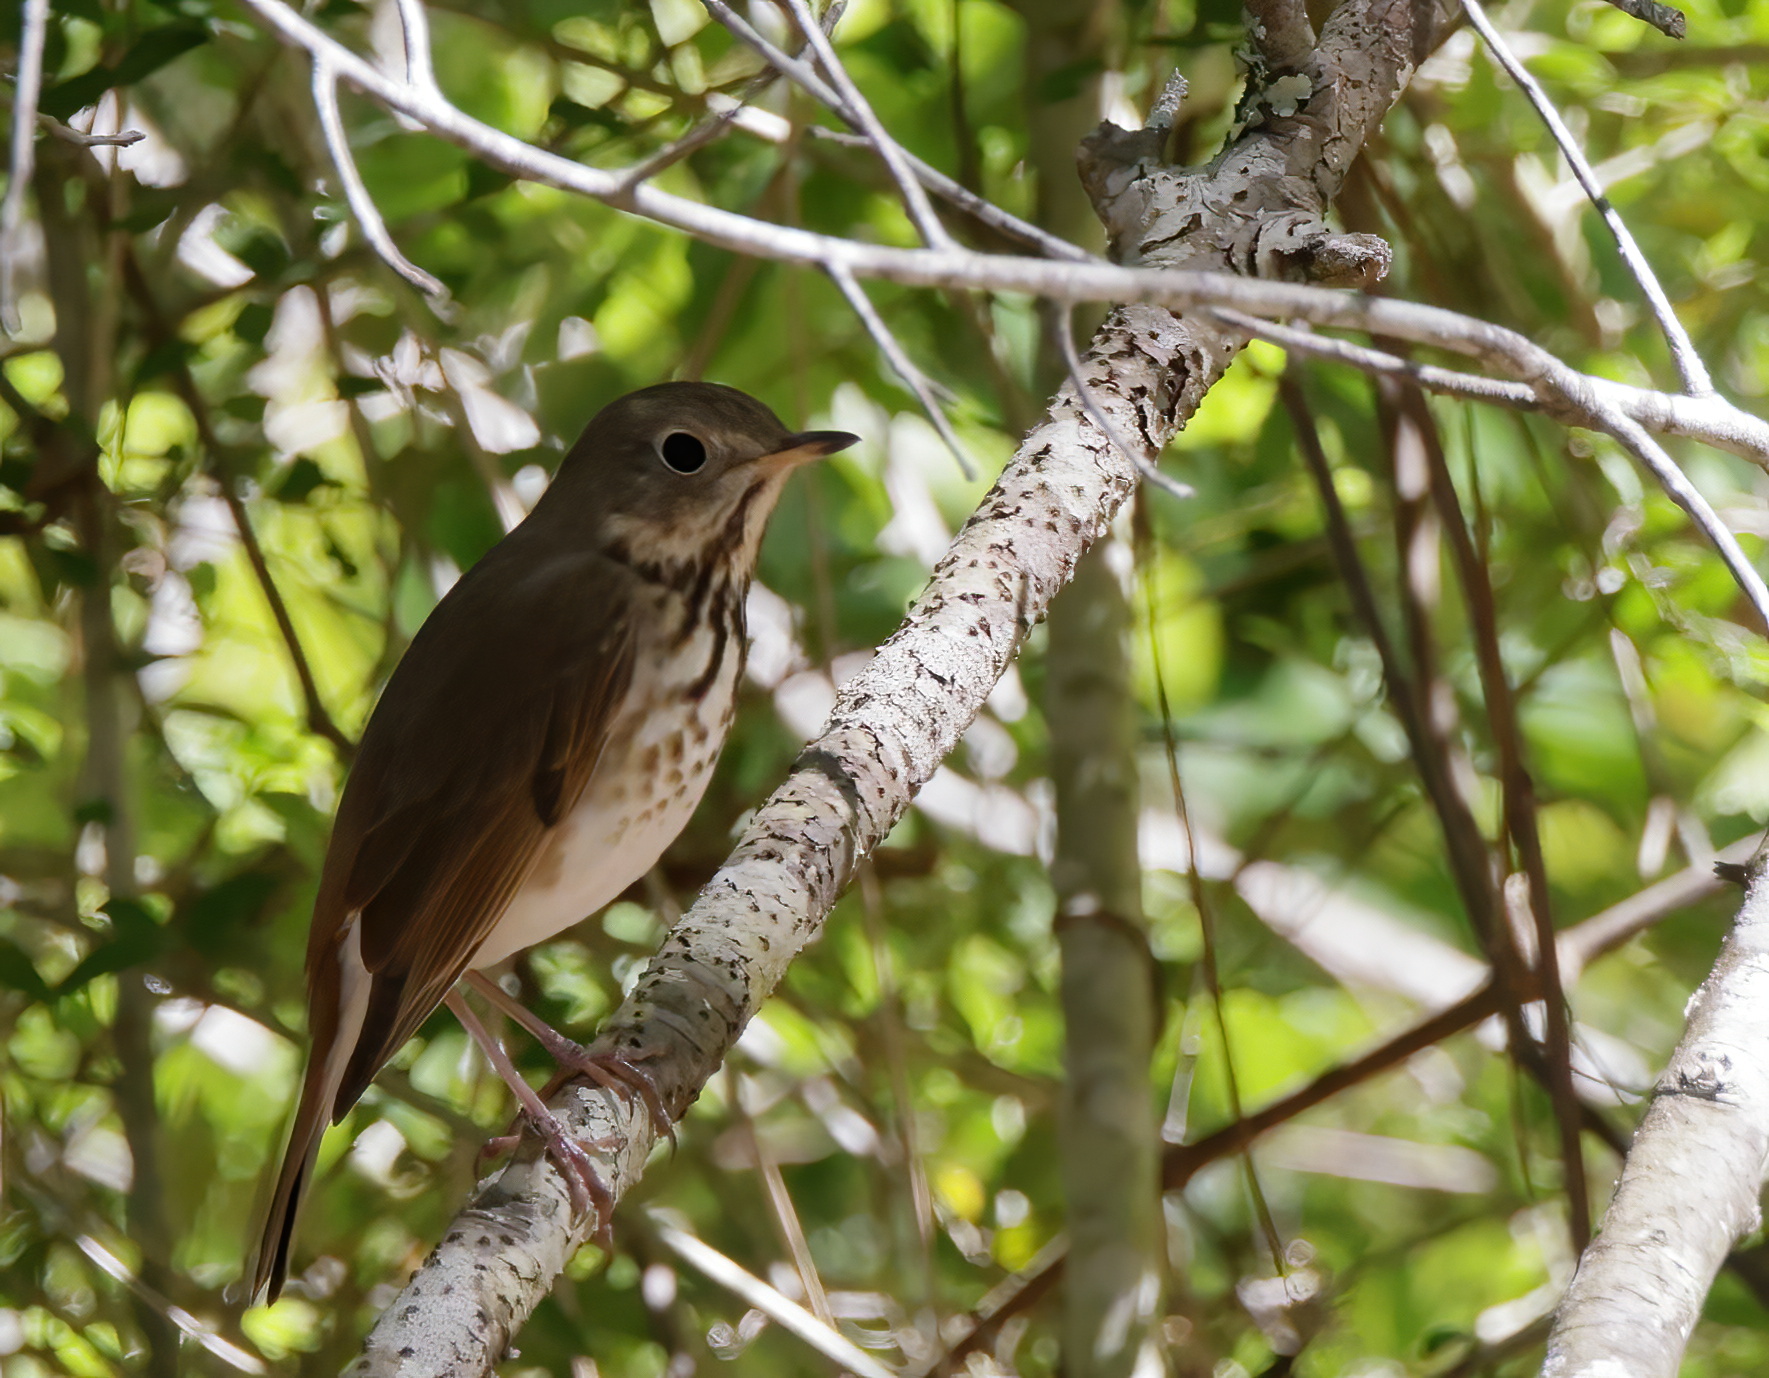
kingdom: Animalia
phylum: Chordata
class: Aves
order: Passeriformes
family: Turdidae
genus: Catharus
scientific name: Catharus guttatus
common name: Hermit thrush
